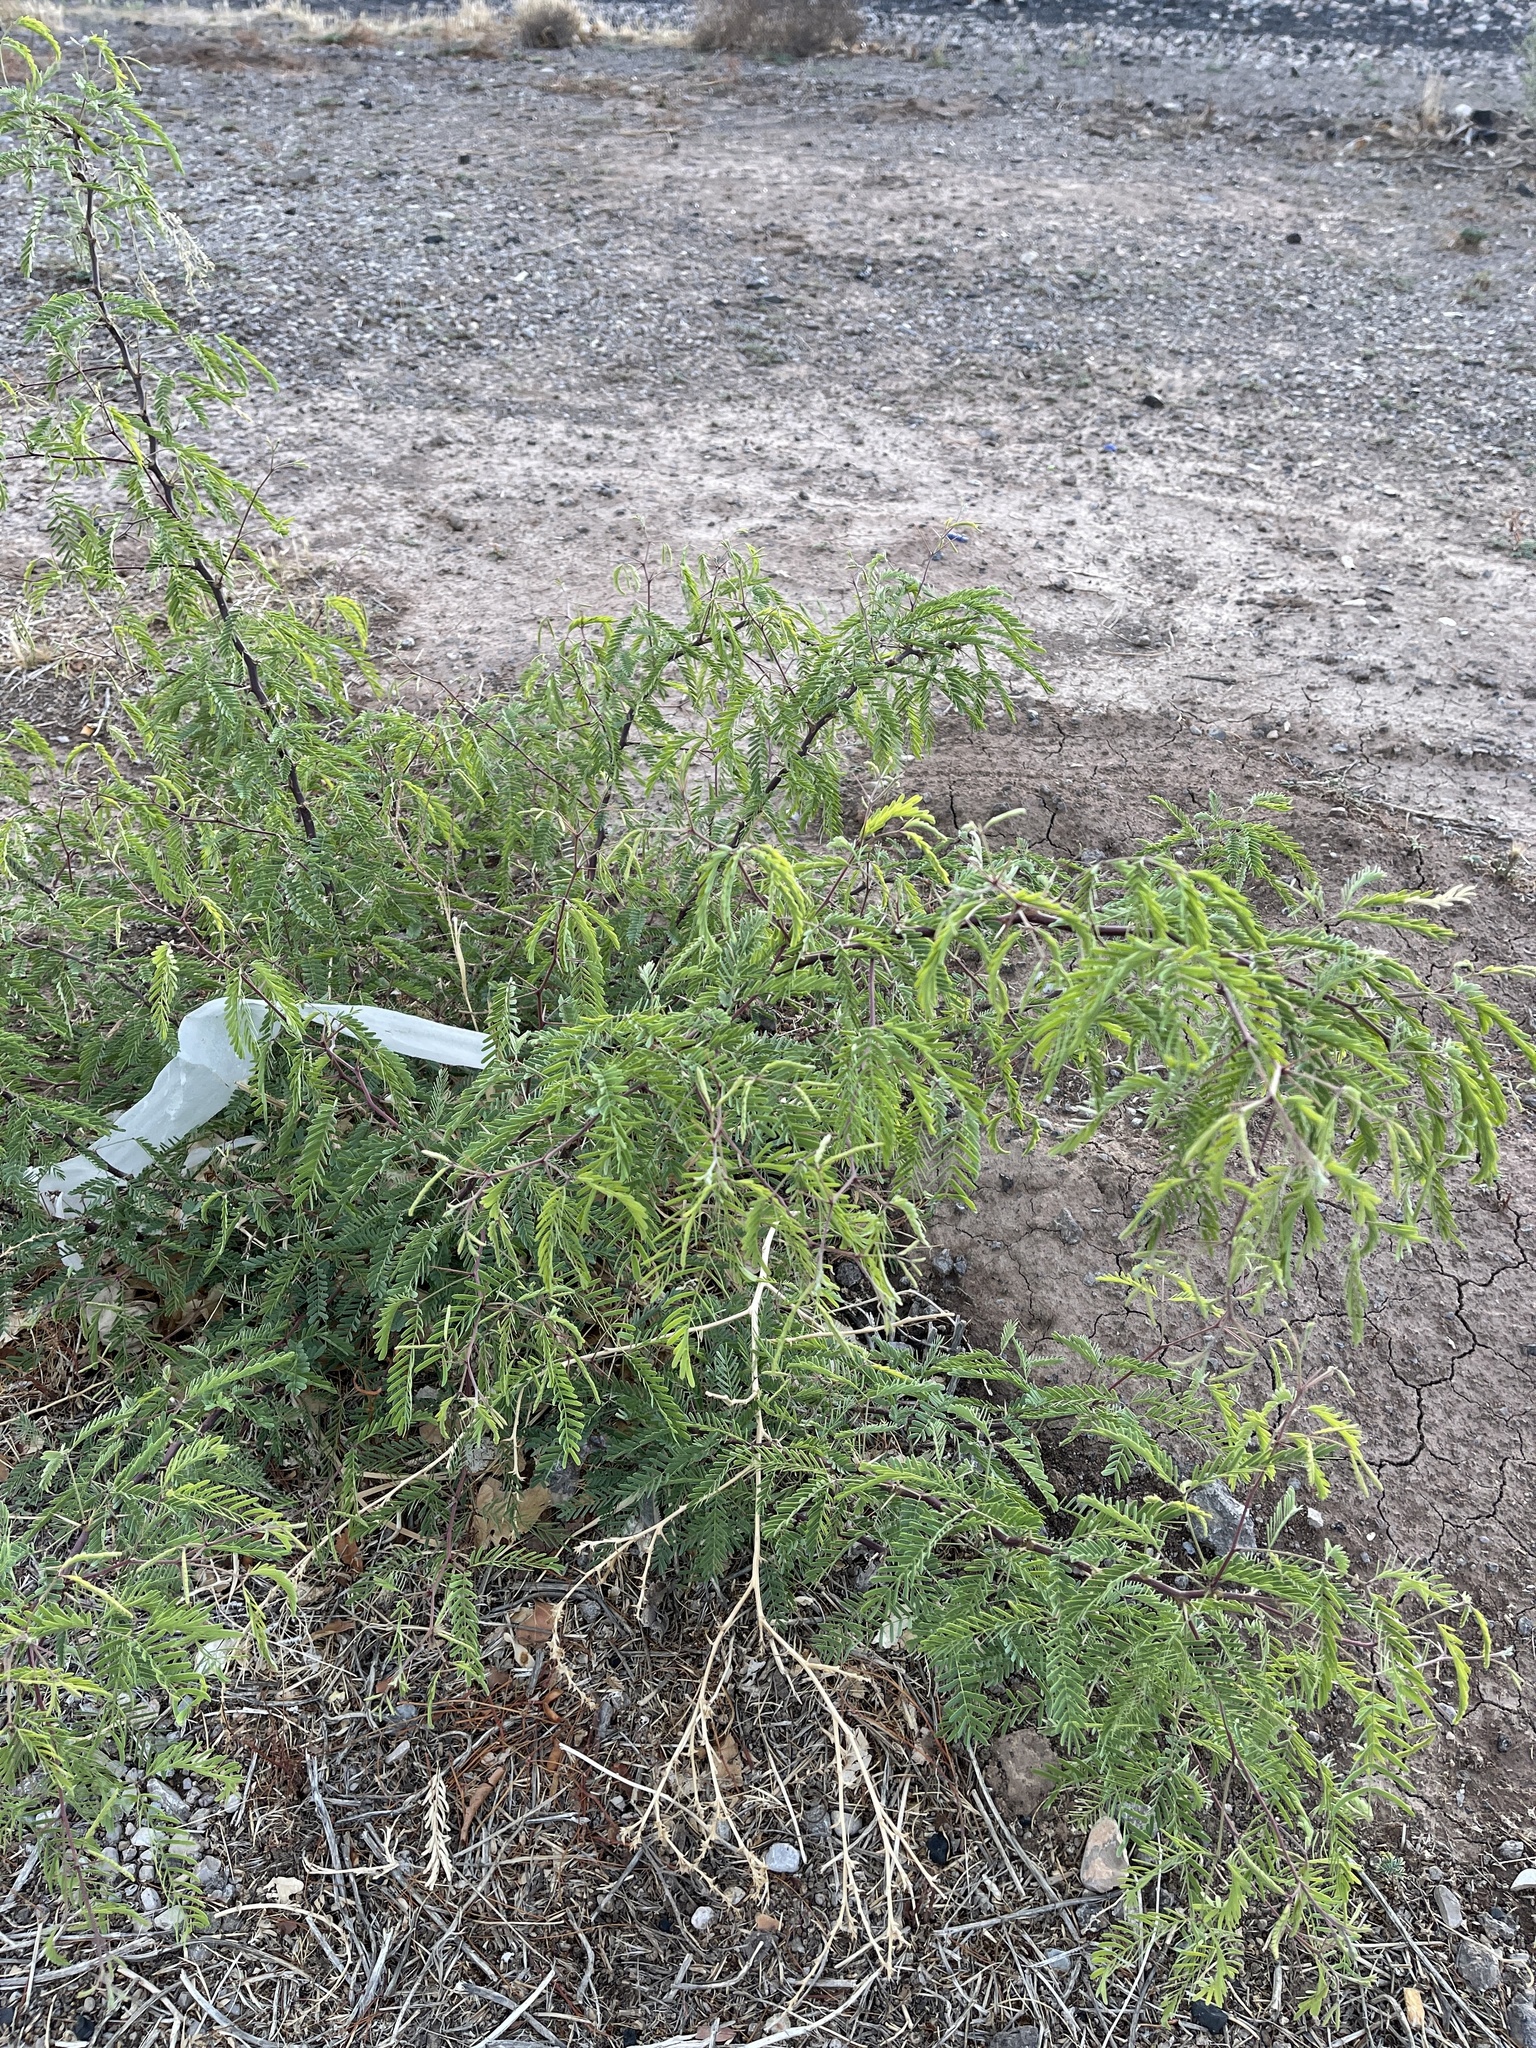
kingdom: Plantae
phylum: Tracheophyta
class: Magnoliopsida
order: Fabales
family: Fabaceae
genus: Prosopis
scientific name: Prosopis glandulosa
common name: Honey mesquite
